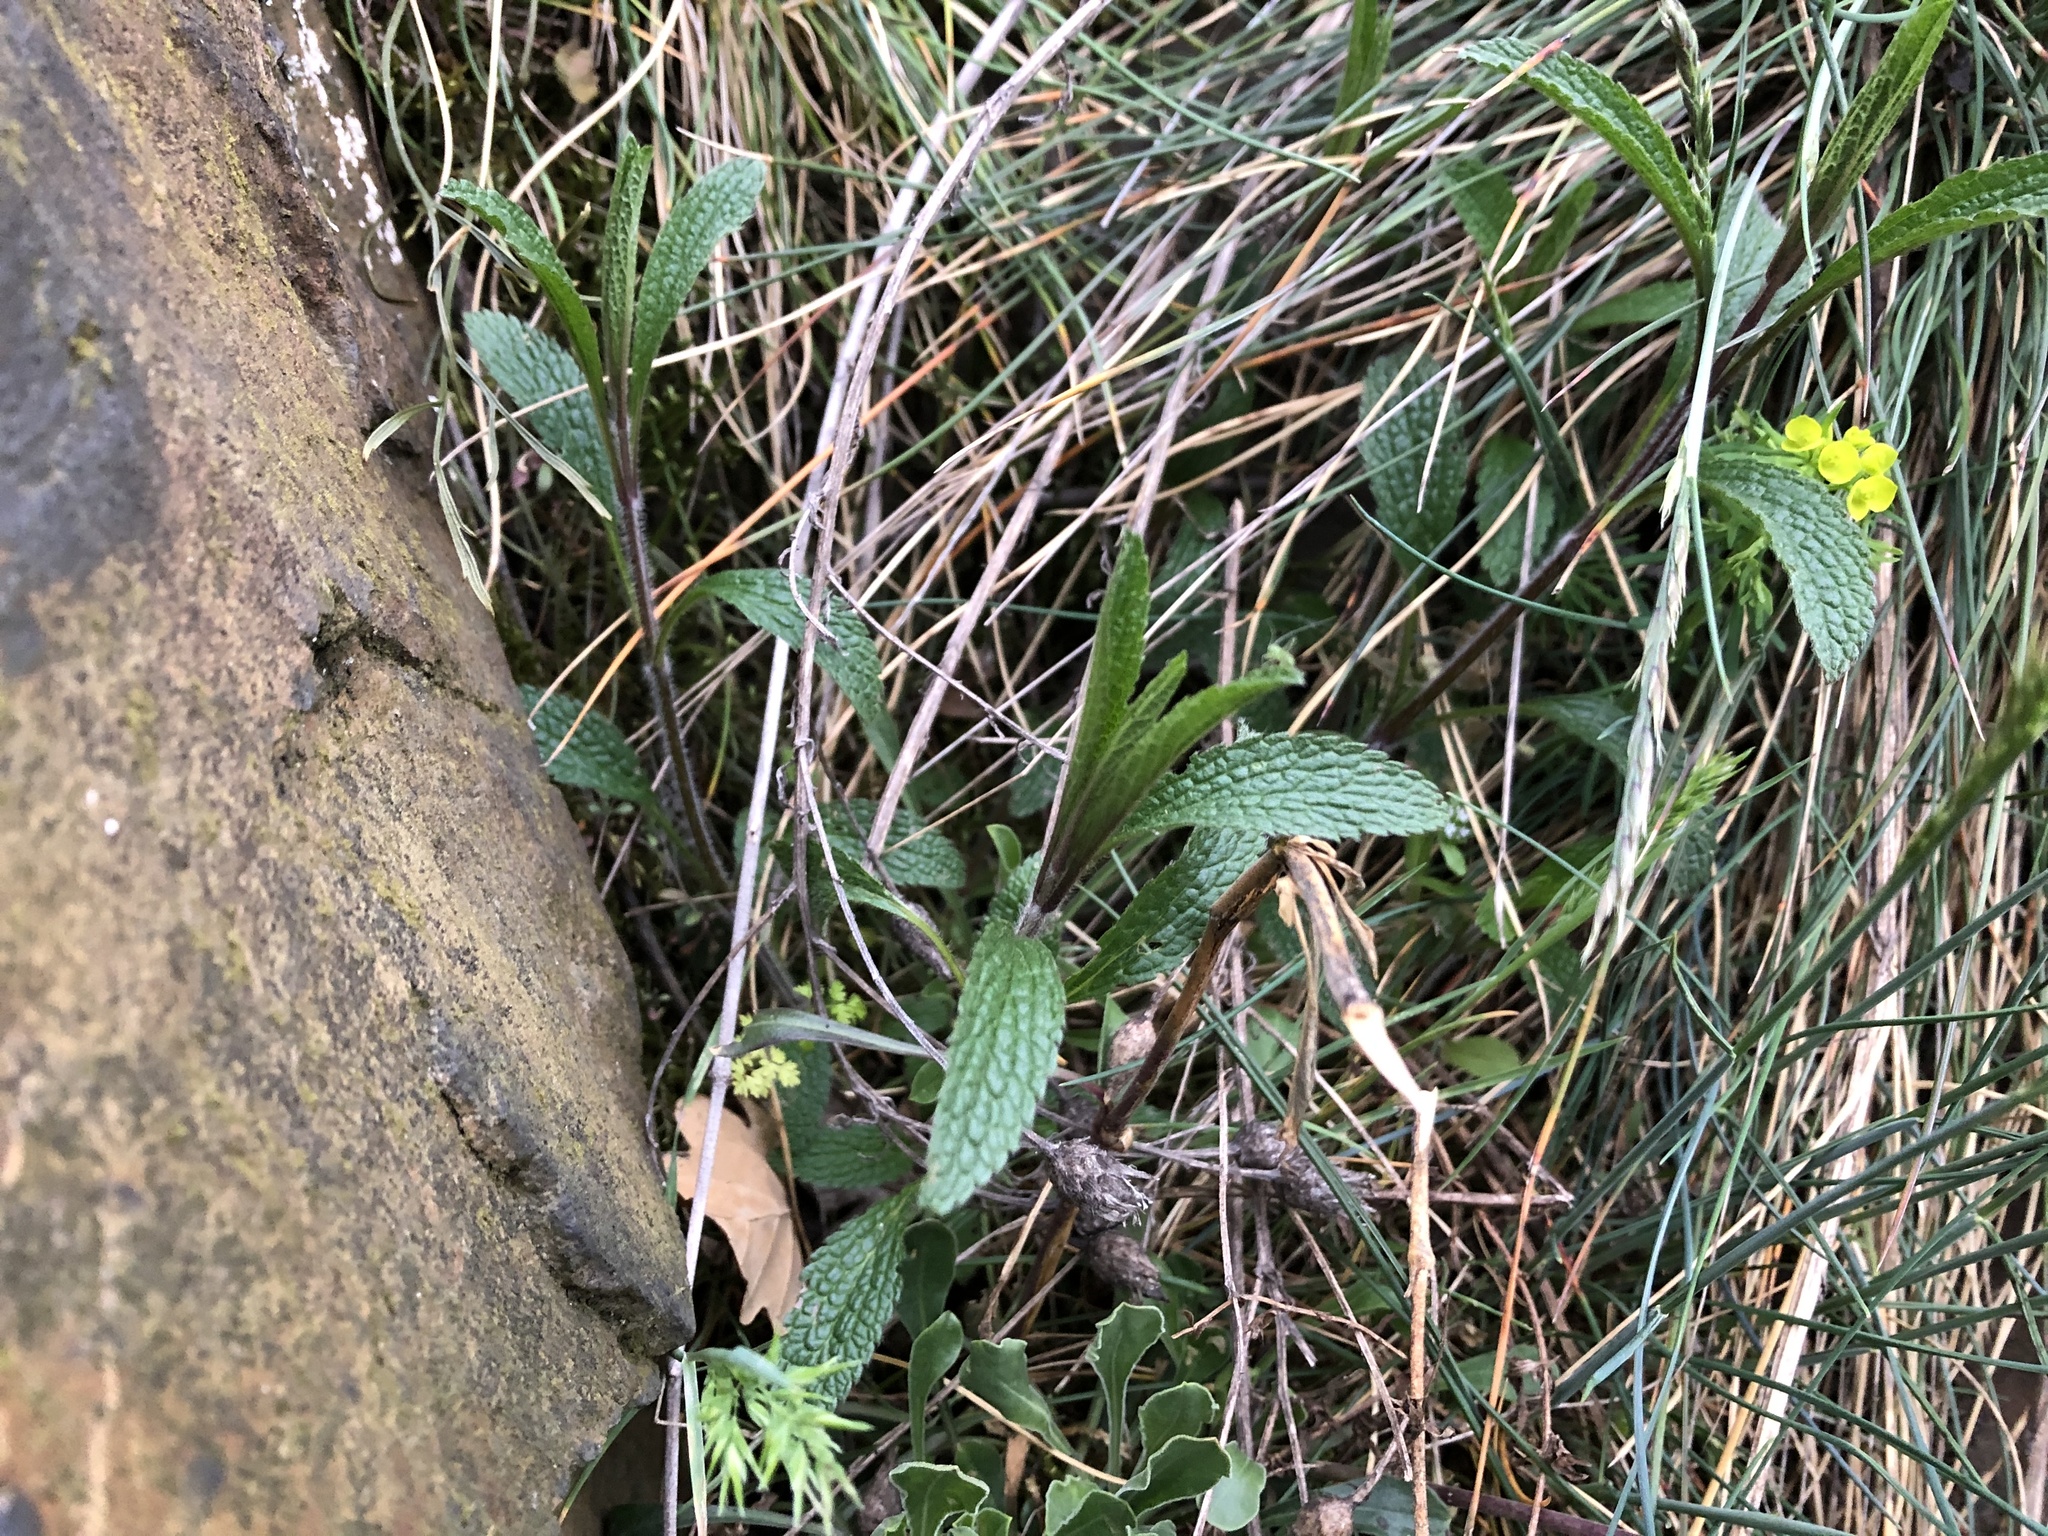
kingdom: Plantae
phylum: Tracheophyta
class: Magnoliopsida
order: Lamiales
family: Lamiaceae
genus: Stachys
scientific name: Stachys recta
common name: Perennial yellow-woundwort
